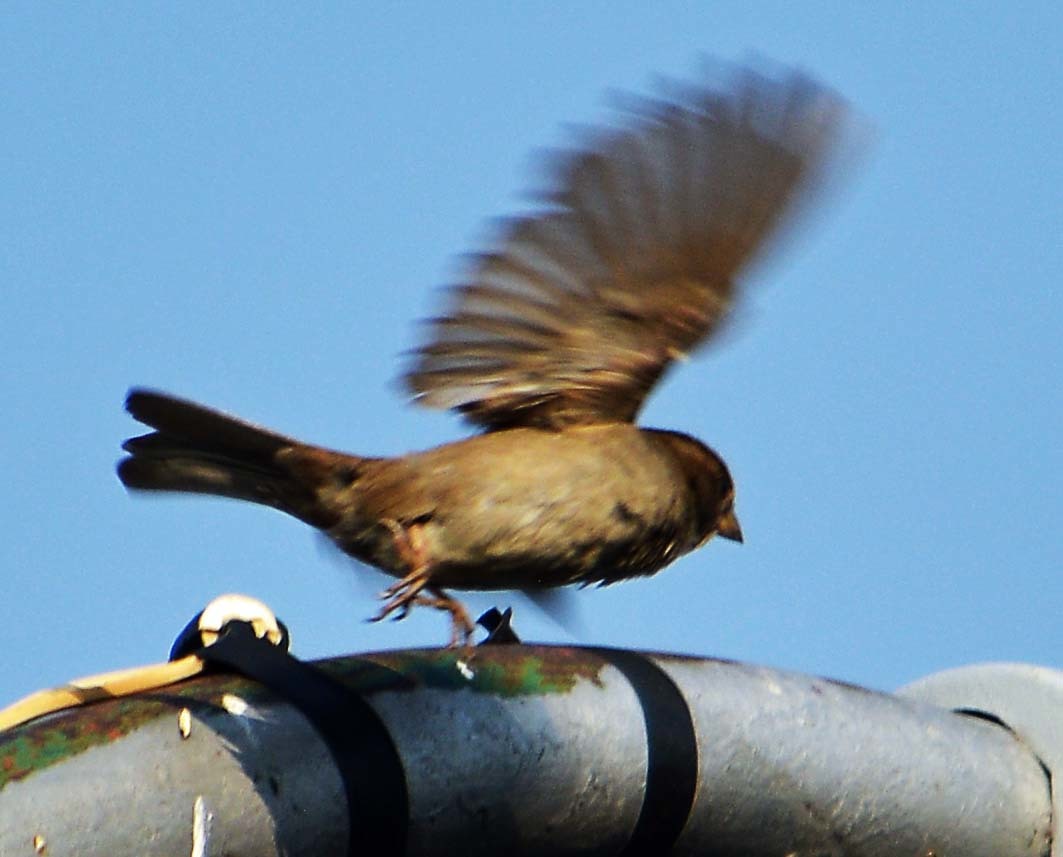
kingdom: Animalia
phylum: Chordata
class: Aves
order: Passeriformes
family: Passeridae
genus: Passer
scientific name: Passer domesticus
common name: House sparrow
